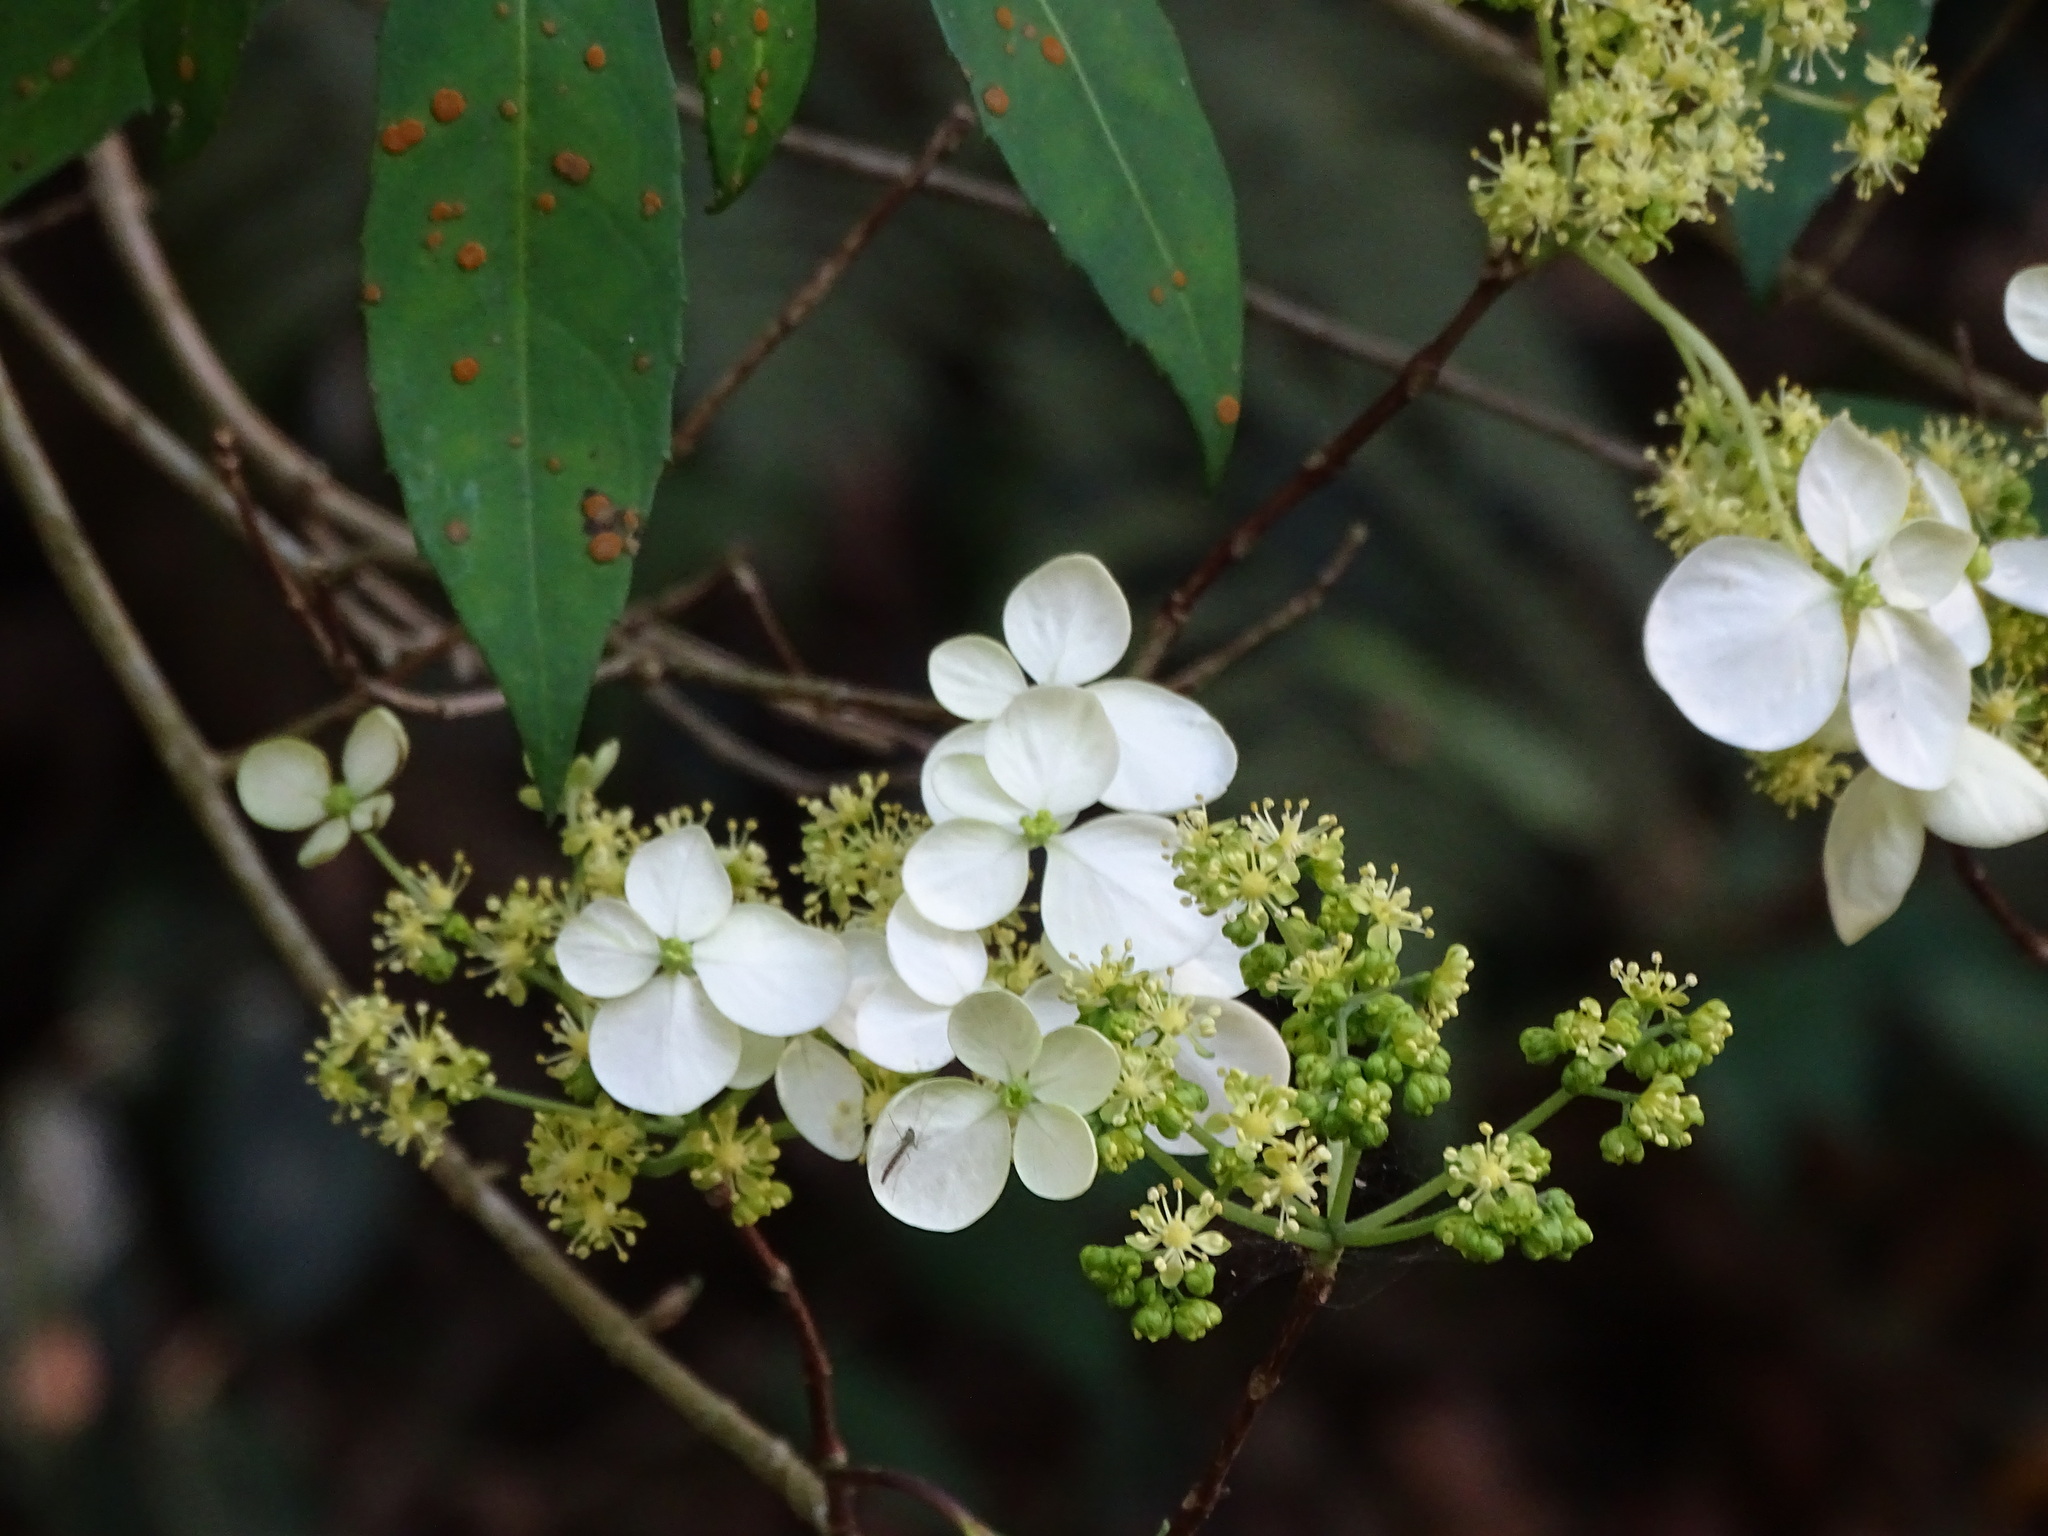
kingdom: Plantae
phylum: Tracheophyta
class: Magnoliopsida
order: Cornales
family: Hydrangeaceae
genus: Hydrangea
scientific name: Hydrangea chinensis
